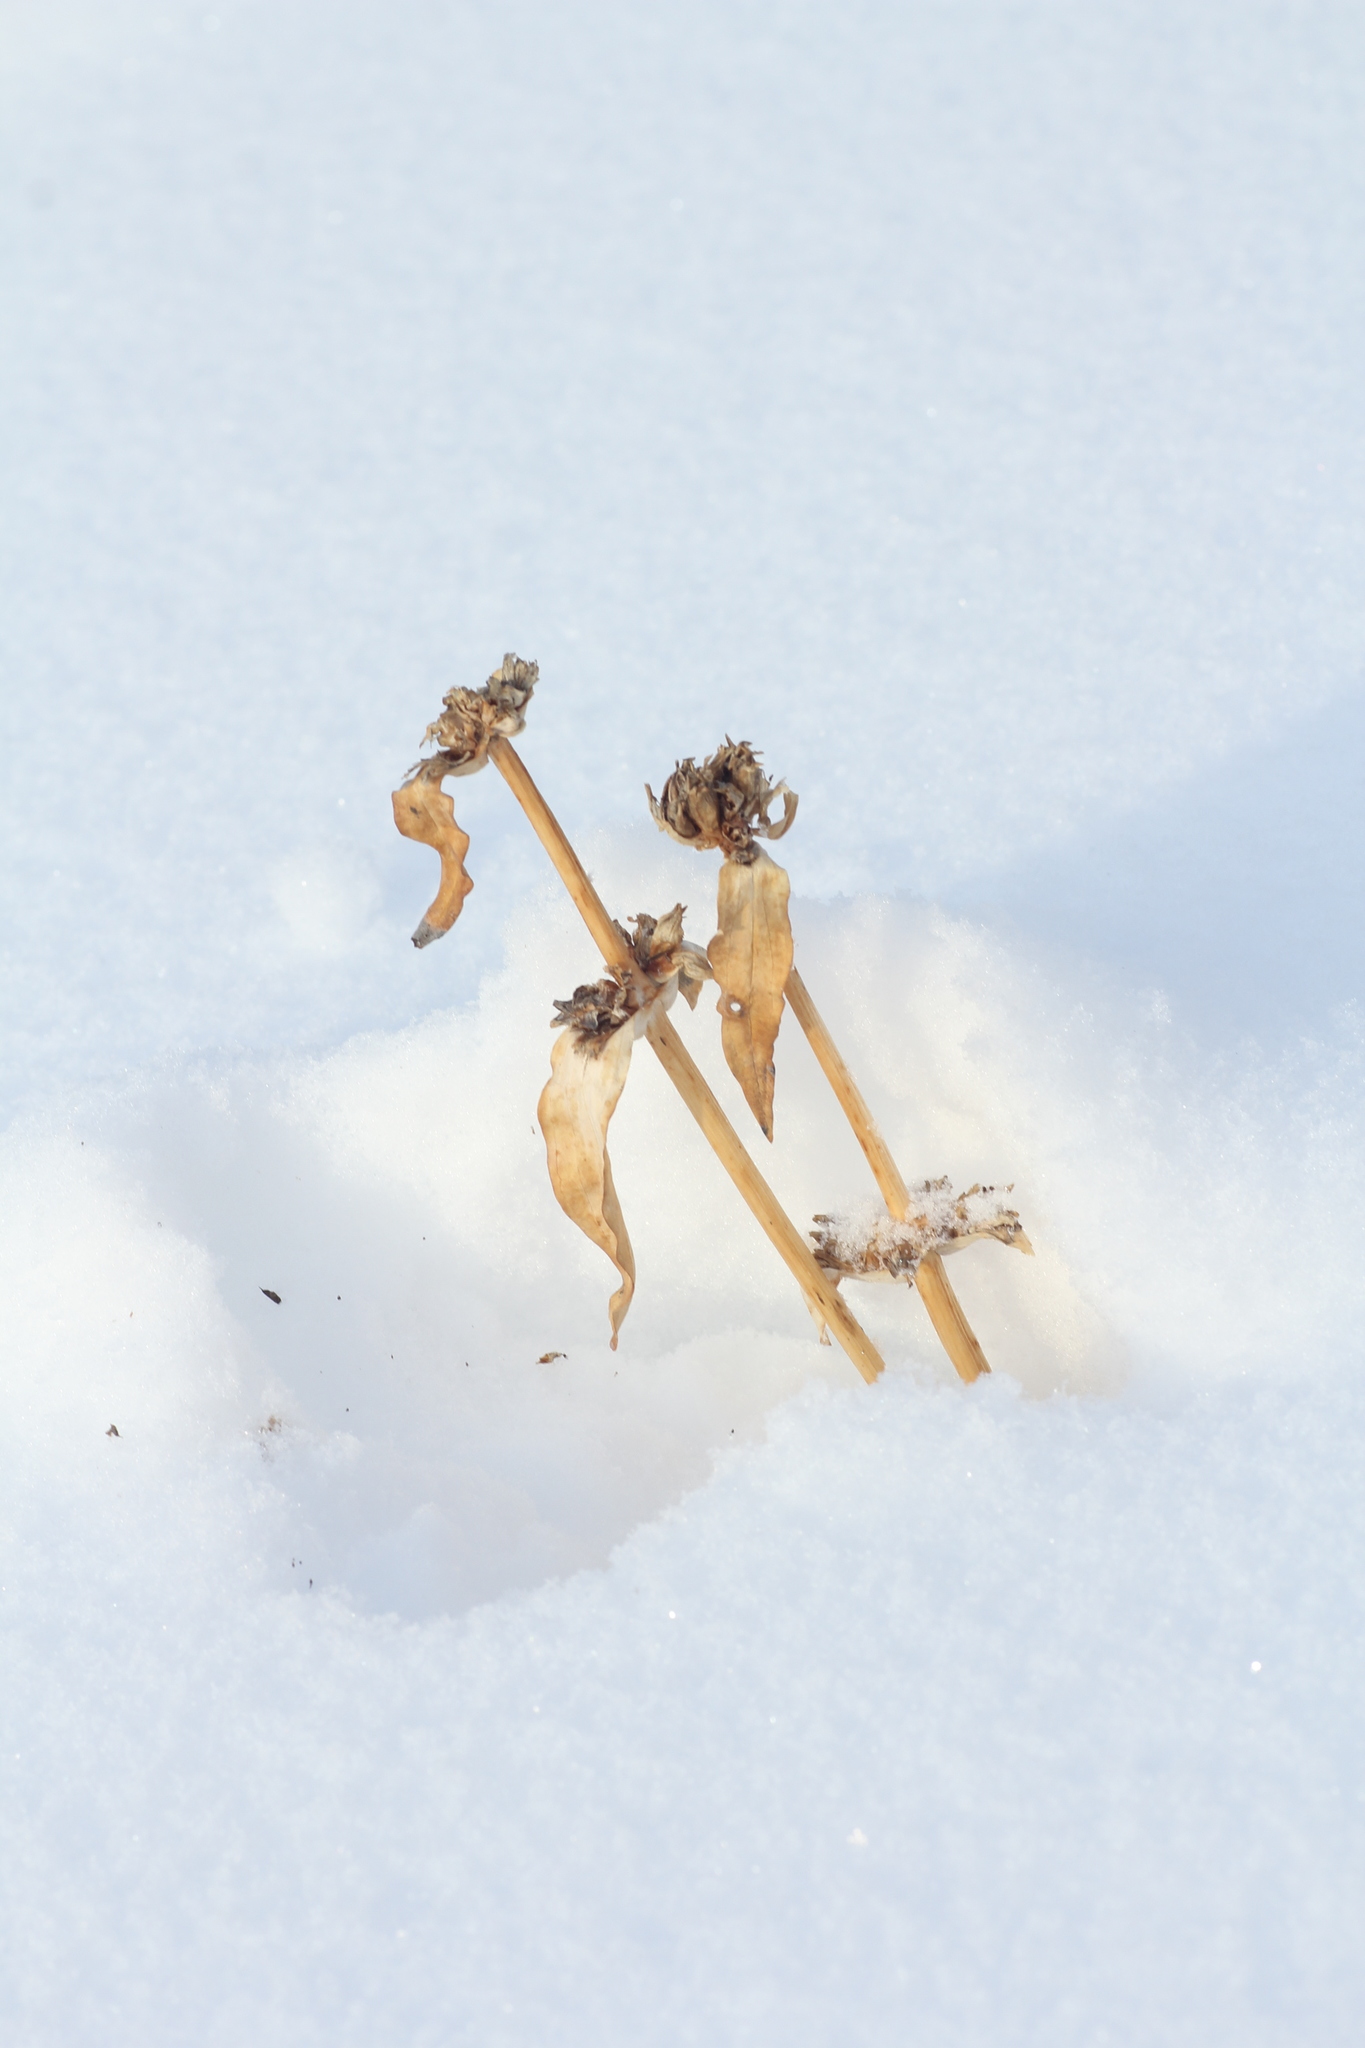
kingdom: Plantae
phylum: Tracheophyta
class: Magnoliopsida
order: Gentianales
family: Gentianaceae
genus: Gentiana
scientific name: Gentiana macrophylla
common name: Large-leaf gentian
